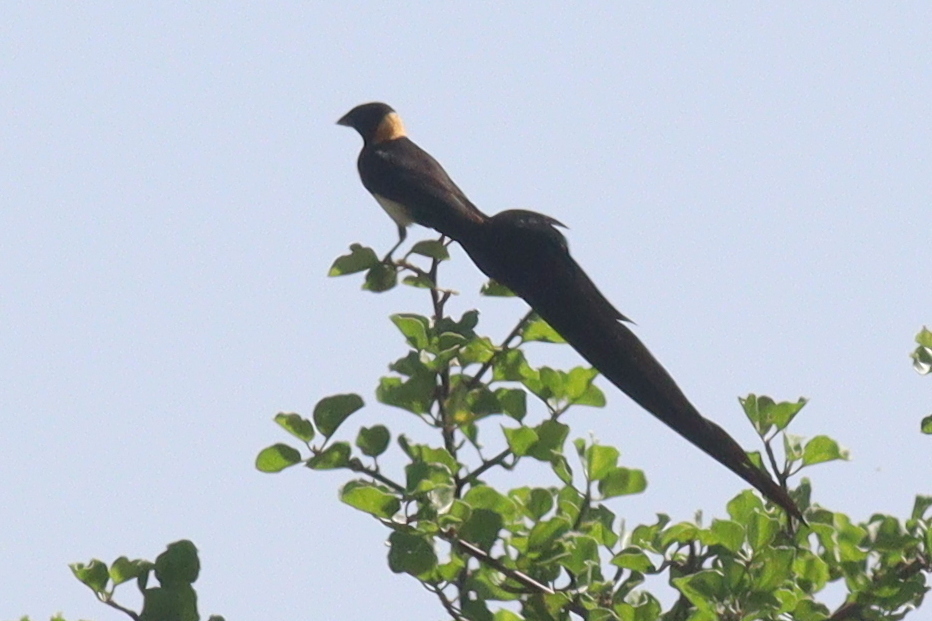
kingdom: Animalia
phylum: Chordata
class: Aves
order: Passeriformes
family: Viduidae
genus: Vidua
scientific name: Vidua paradisaea
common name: Long-tailed paradise whydah
